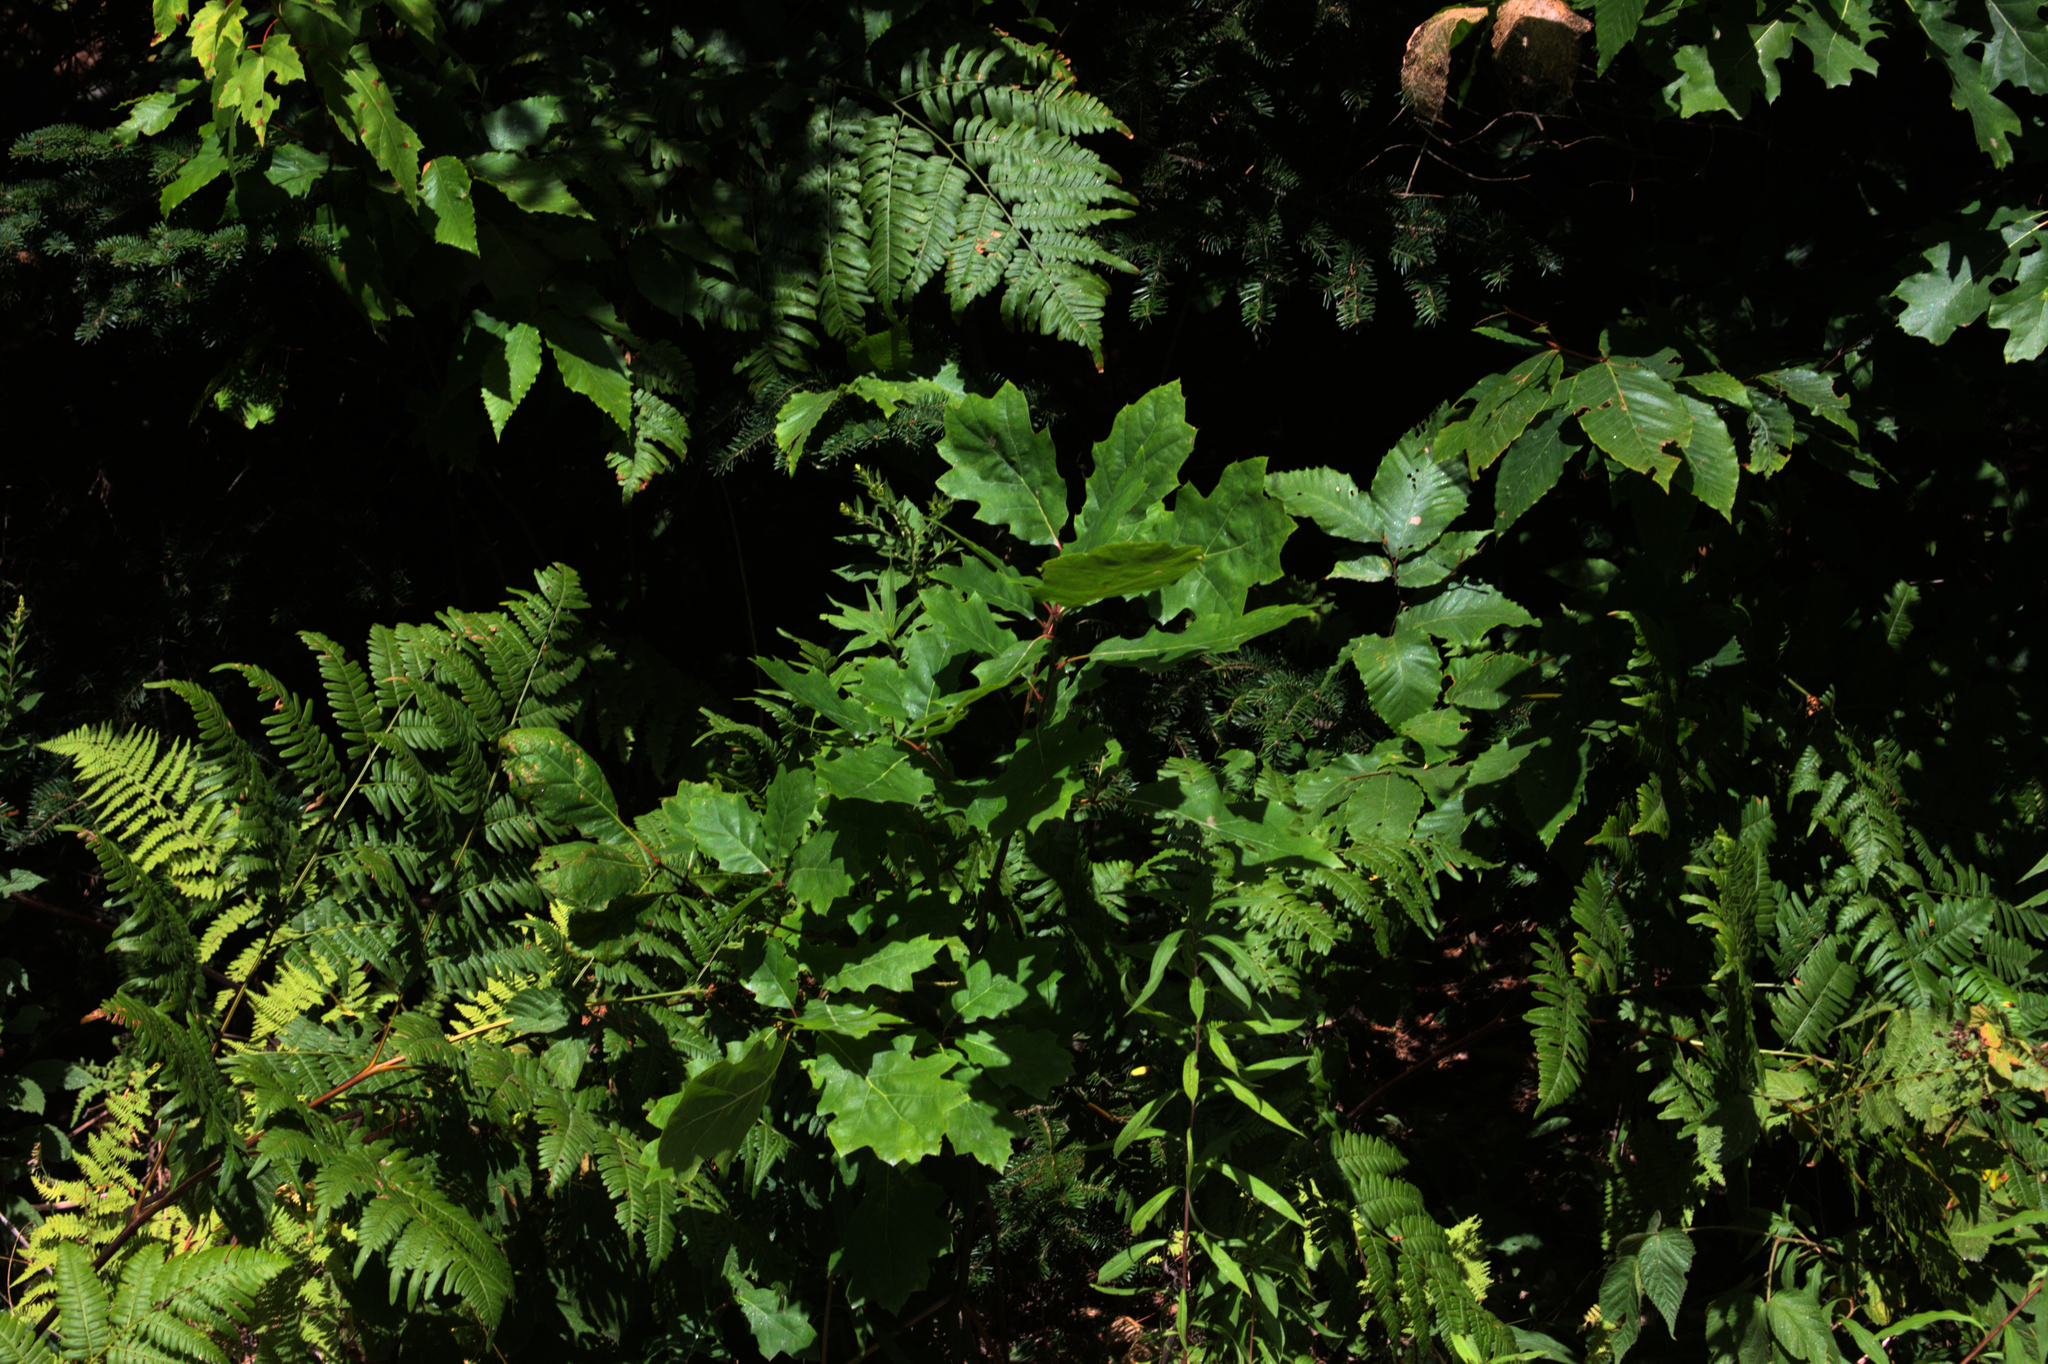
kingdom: Plantae
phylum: Tracheophyta
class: Magnoliopsida
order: Fagales
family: Fagaceae
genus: Quercus
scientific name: Quercus rubra
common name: Red oak
